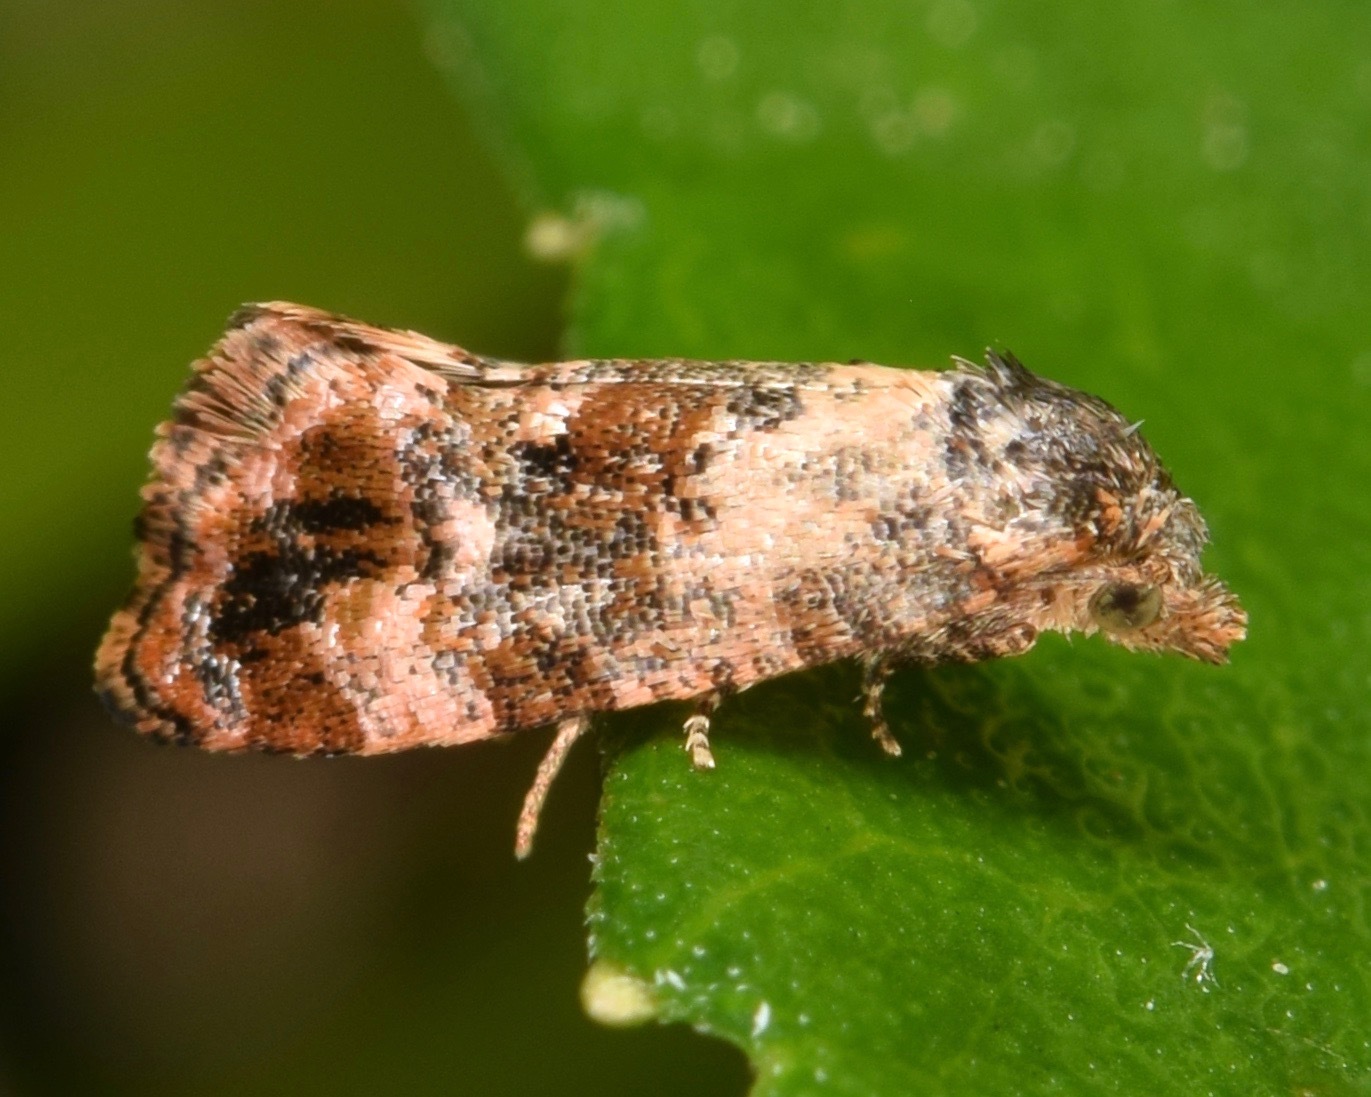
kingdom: Animalia
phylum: Arthropoda
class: Insecta
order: Lepidoptera
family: Tortricidae
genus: Cochylis
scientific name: Cochylis Cochylichroa hoffmanana
